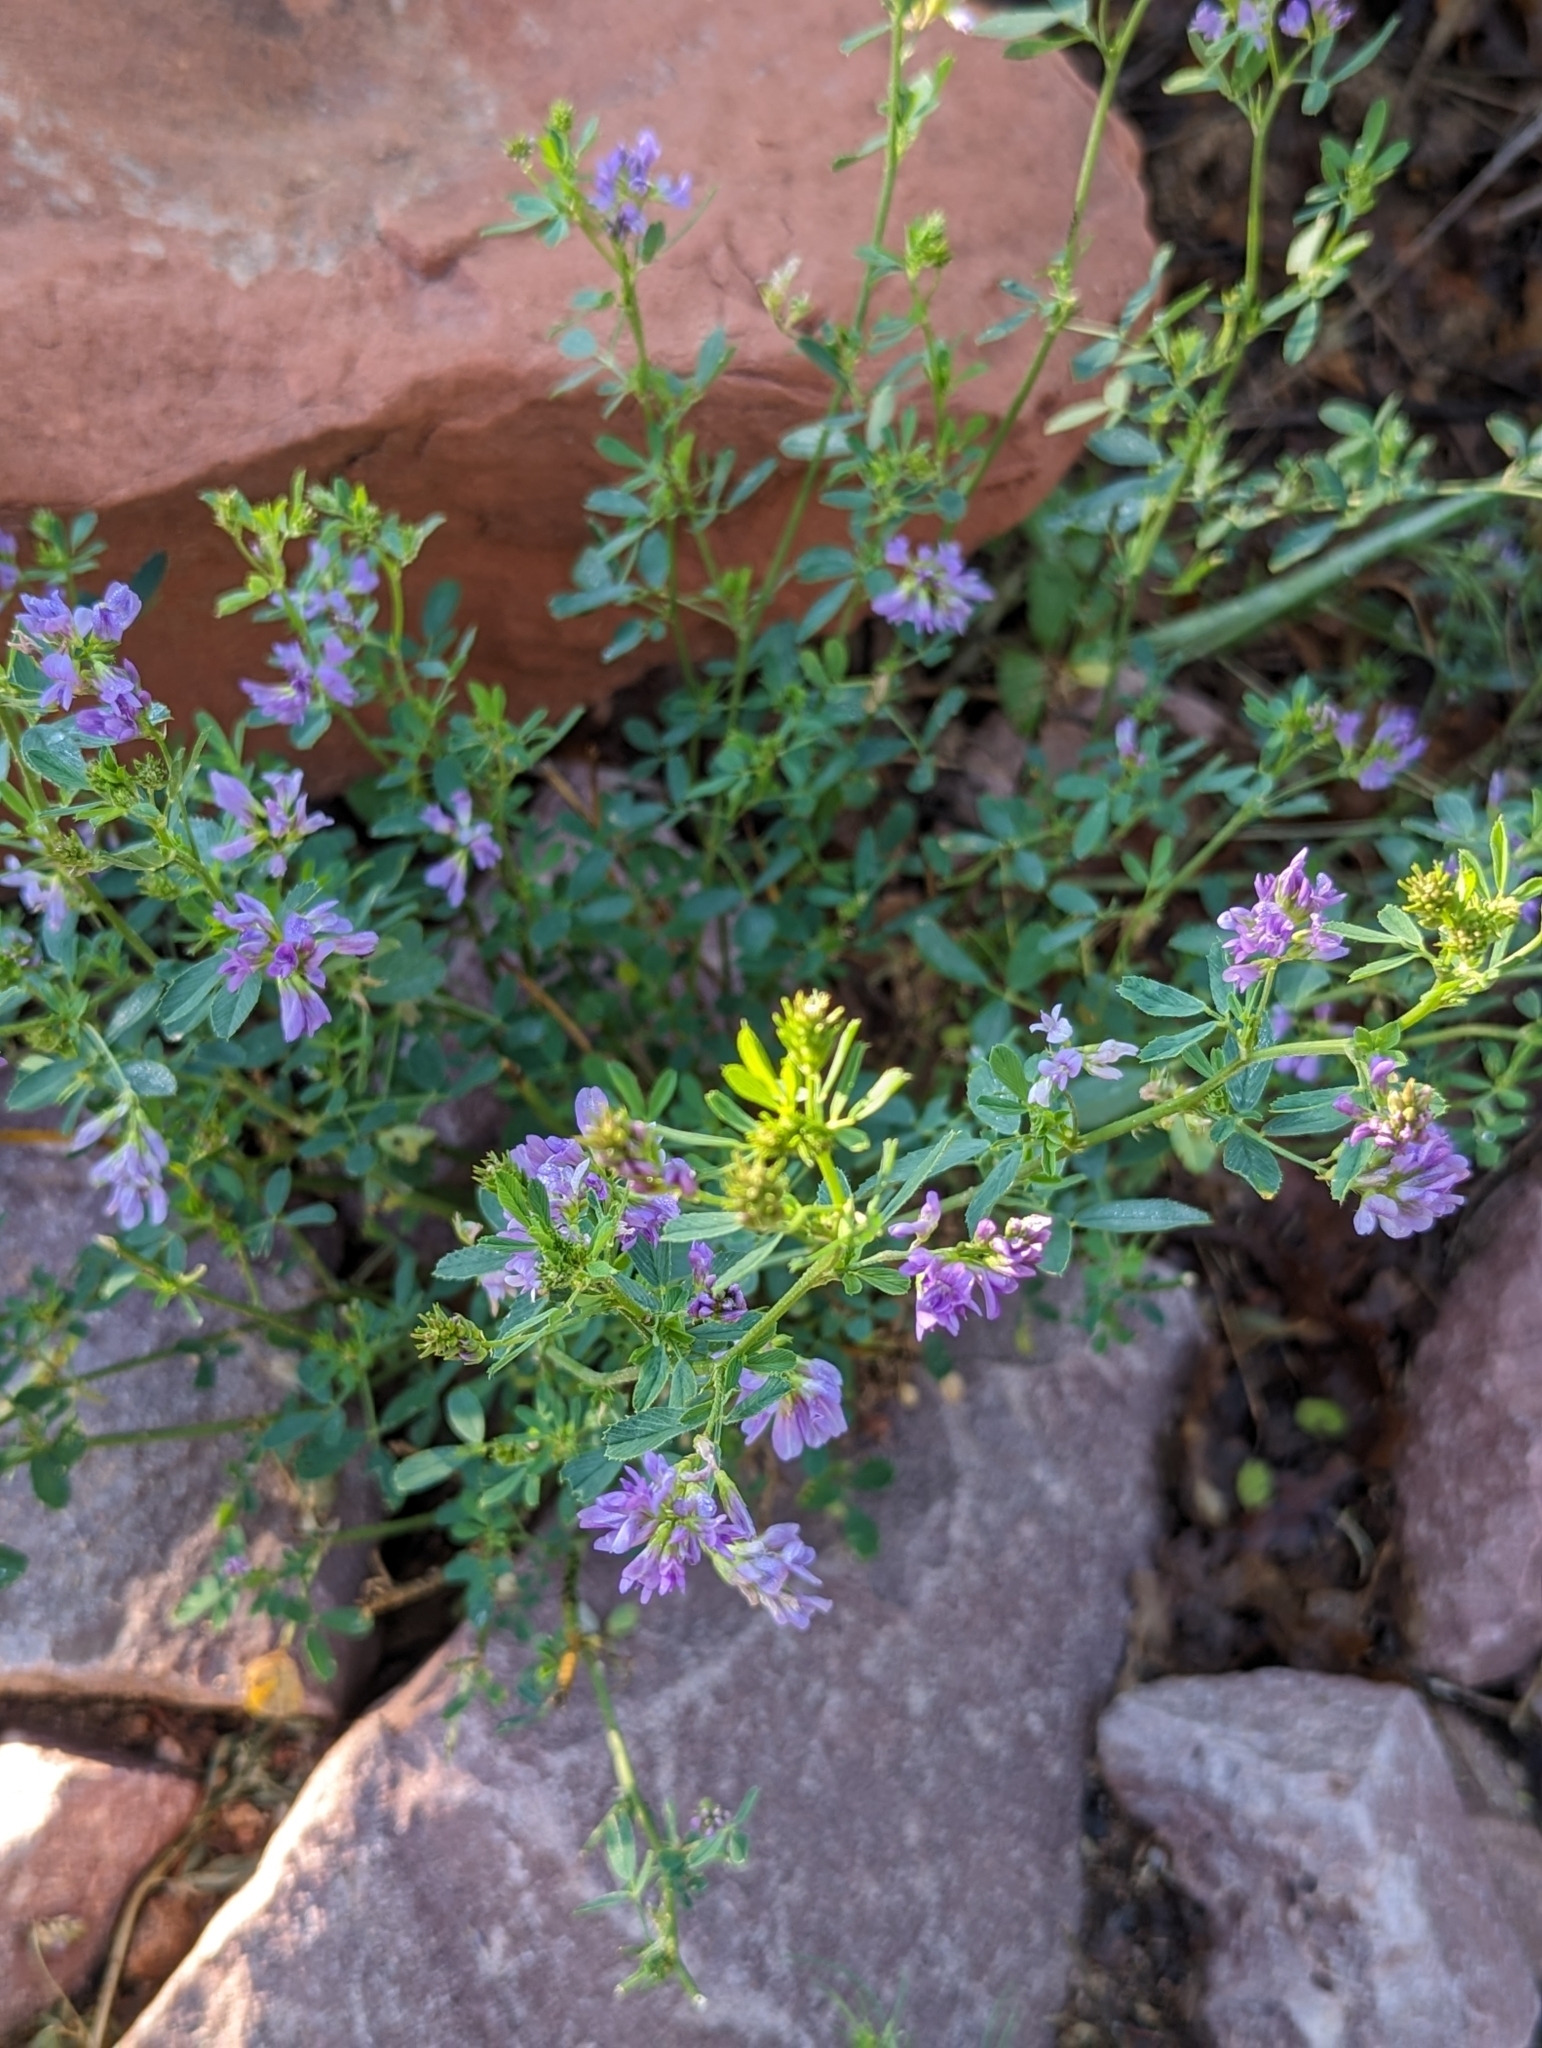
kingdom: Plantae
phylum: Tracheophyta
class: Magnoliopsida
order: Fabales
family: Fabaceae
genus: Medicago
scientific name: Medicago sativa
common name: Alfalfa
